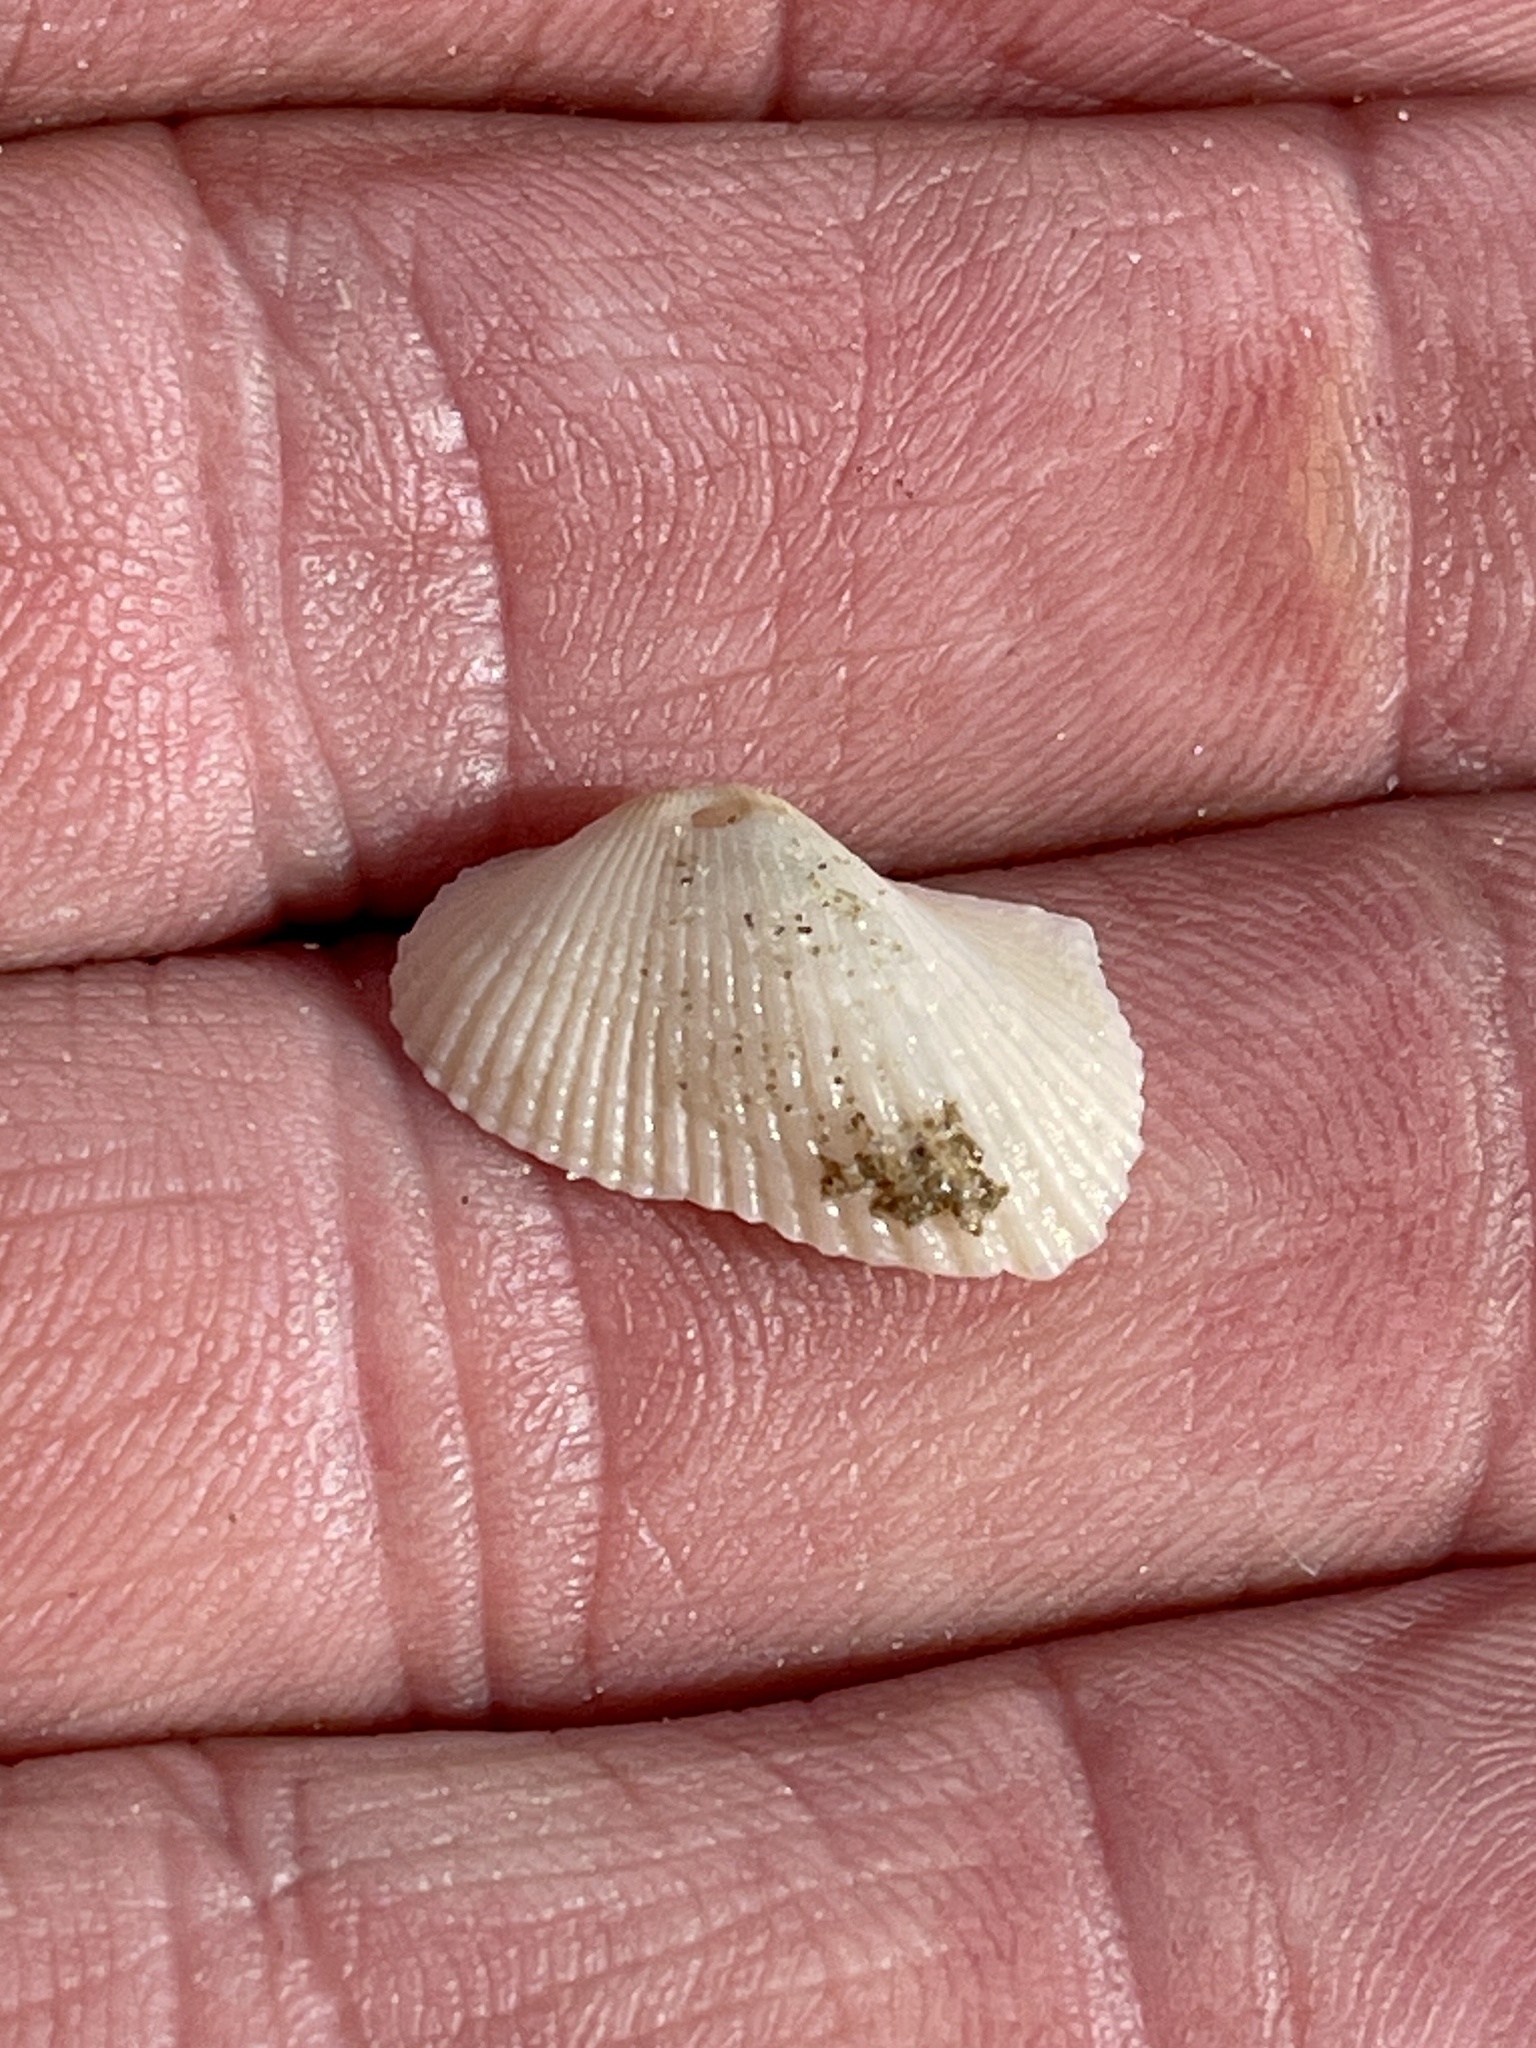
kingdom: Animalia
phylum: Mollusca
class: Bivalvia
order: Arcida
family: Arcidae
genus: Anadara
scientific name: Anadara transversa
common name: Transverse ark
